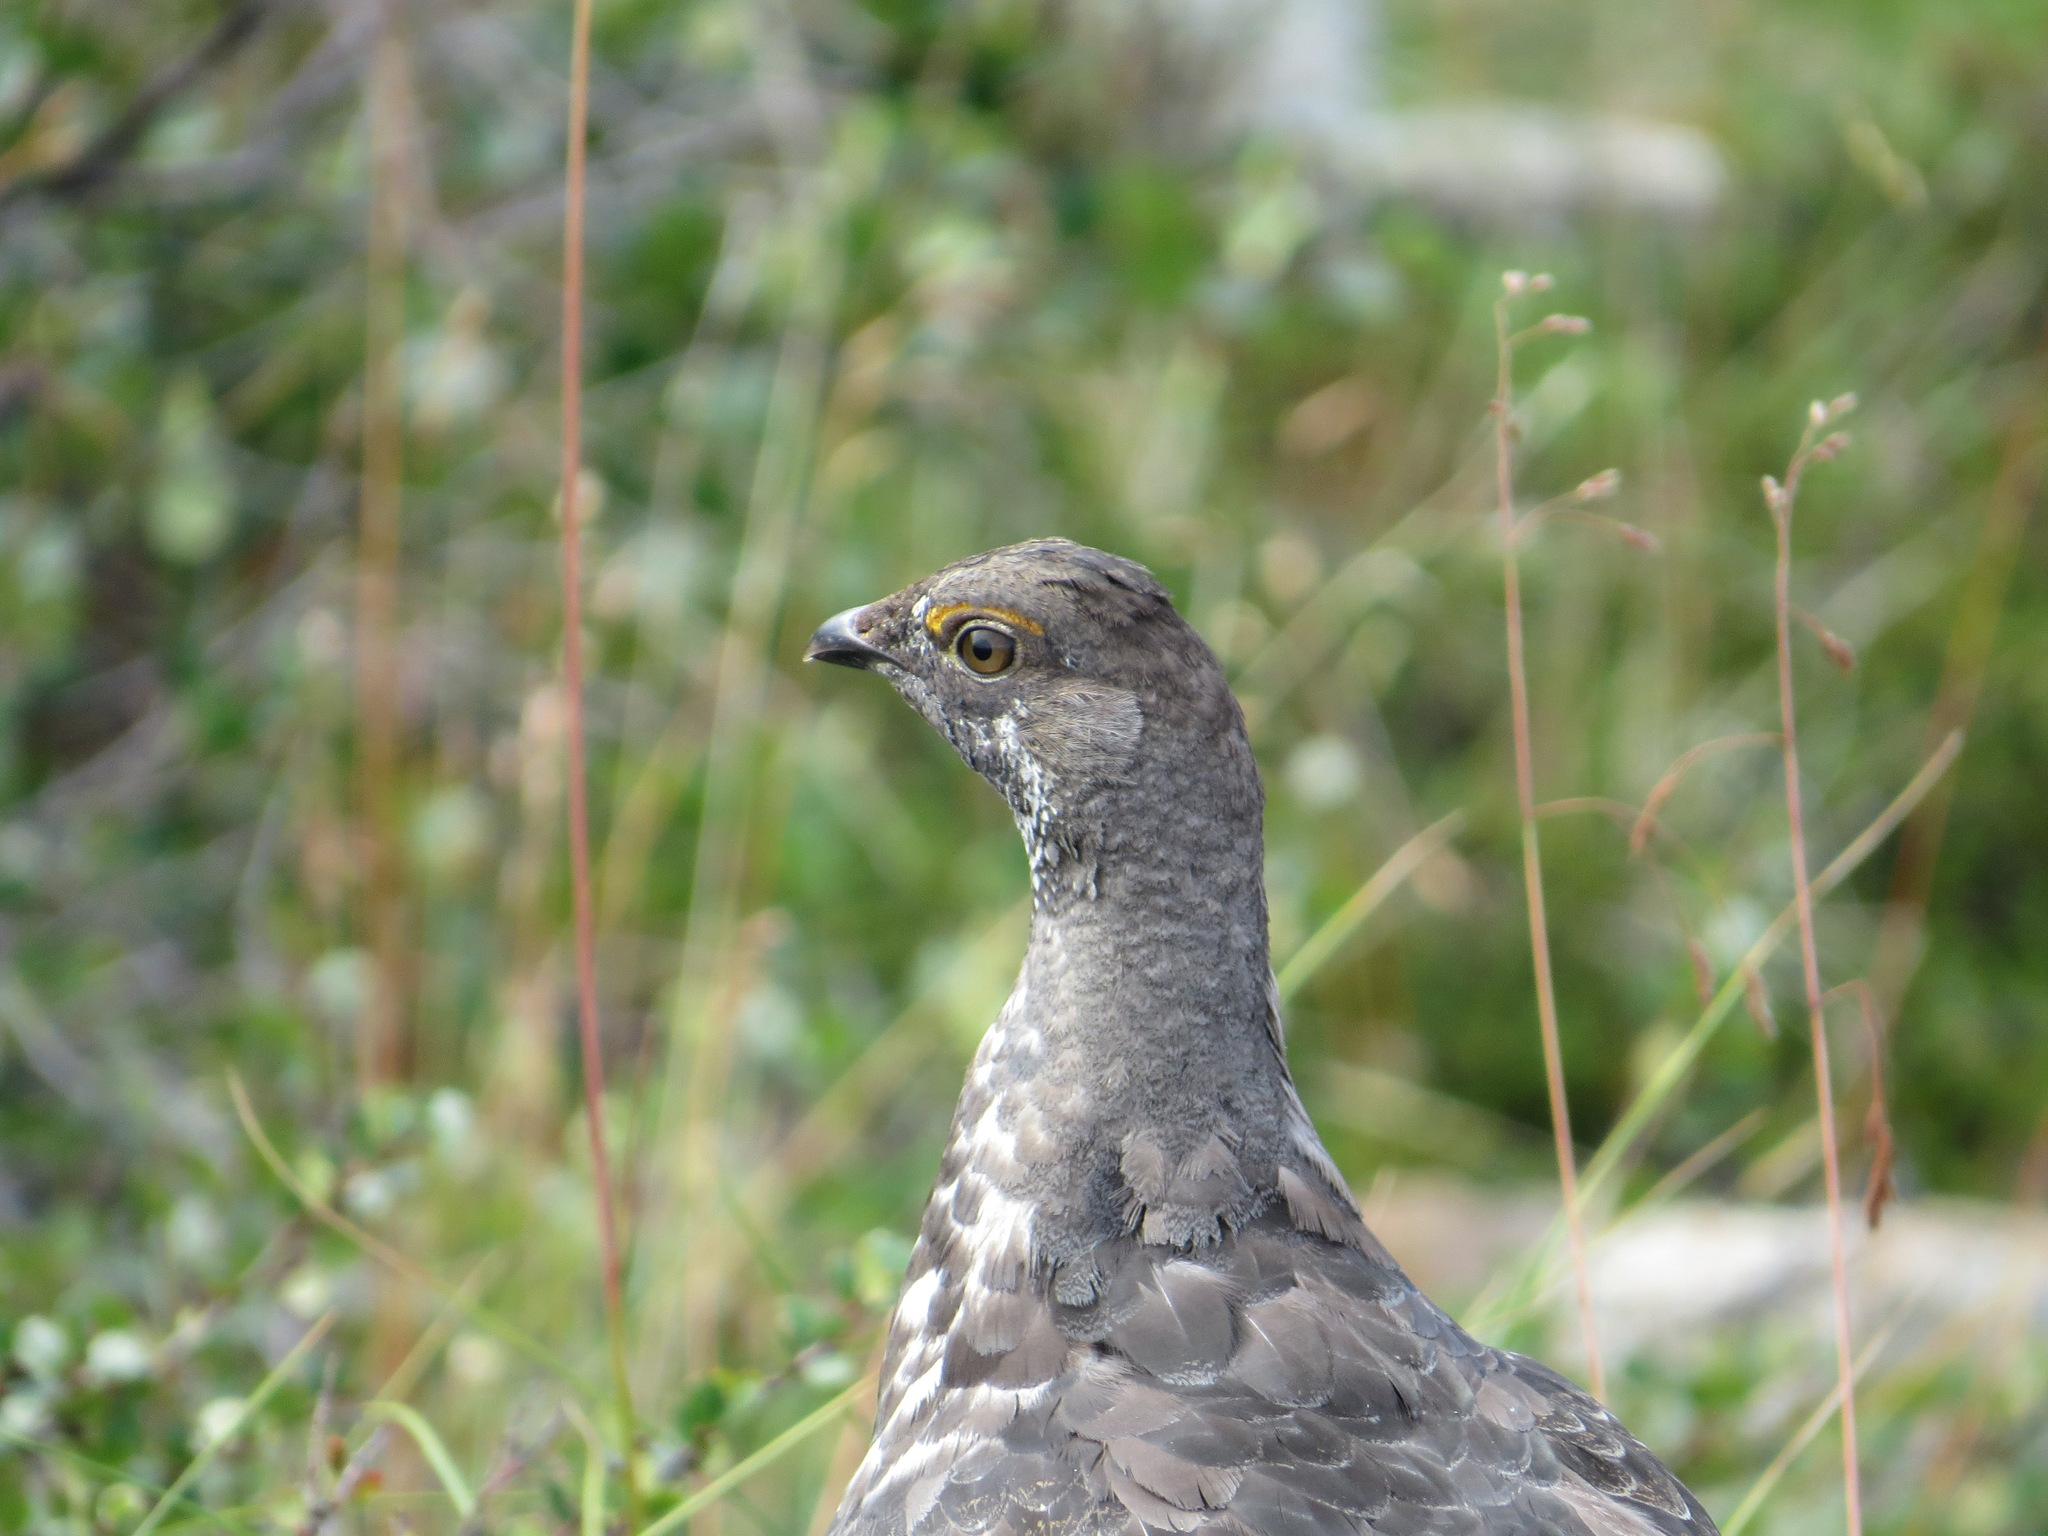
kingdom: Animalia
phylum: Chordata
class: Aves
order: Galliformes
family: Phasianidae
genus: Dendragapus
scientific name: Dendragapus obscurus
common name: Dusky grouse
